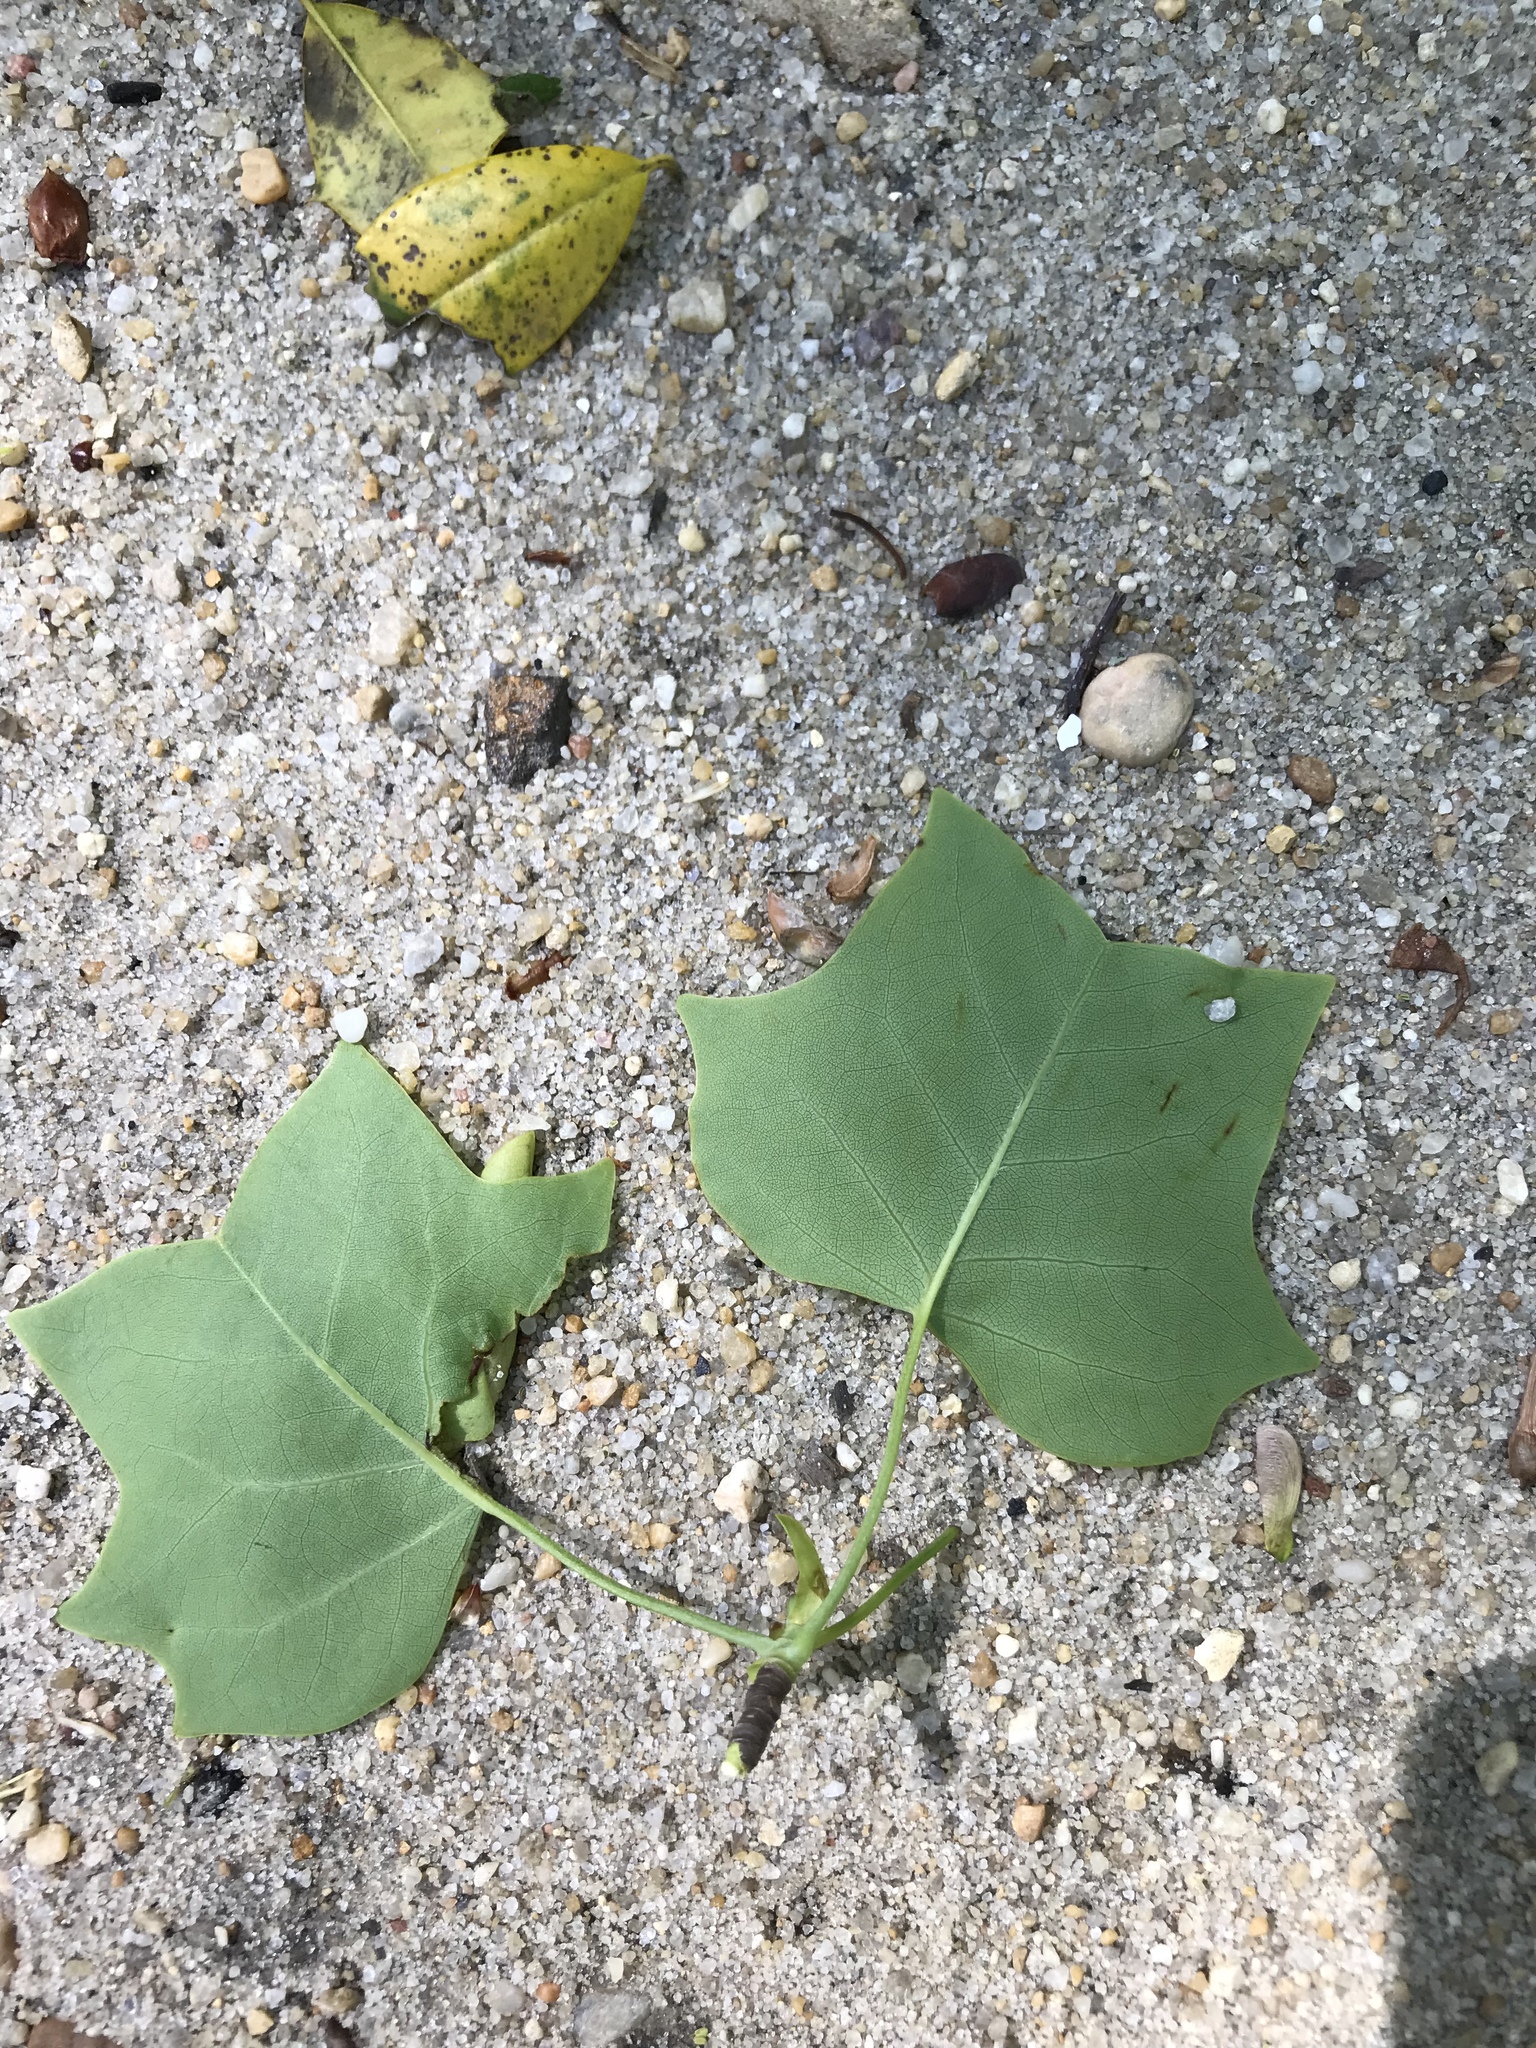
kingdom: Plantae
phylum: Tracheophyta
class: Magnoliopsida
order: Magnoliales
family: Magnoliaceae
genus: Liriodendron
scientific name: Liriodendron tulipifera
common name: Tulip tree
